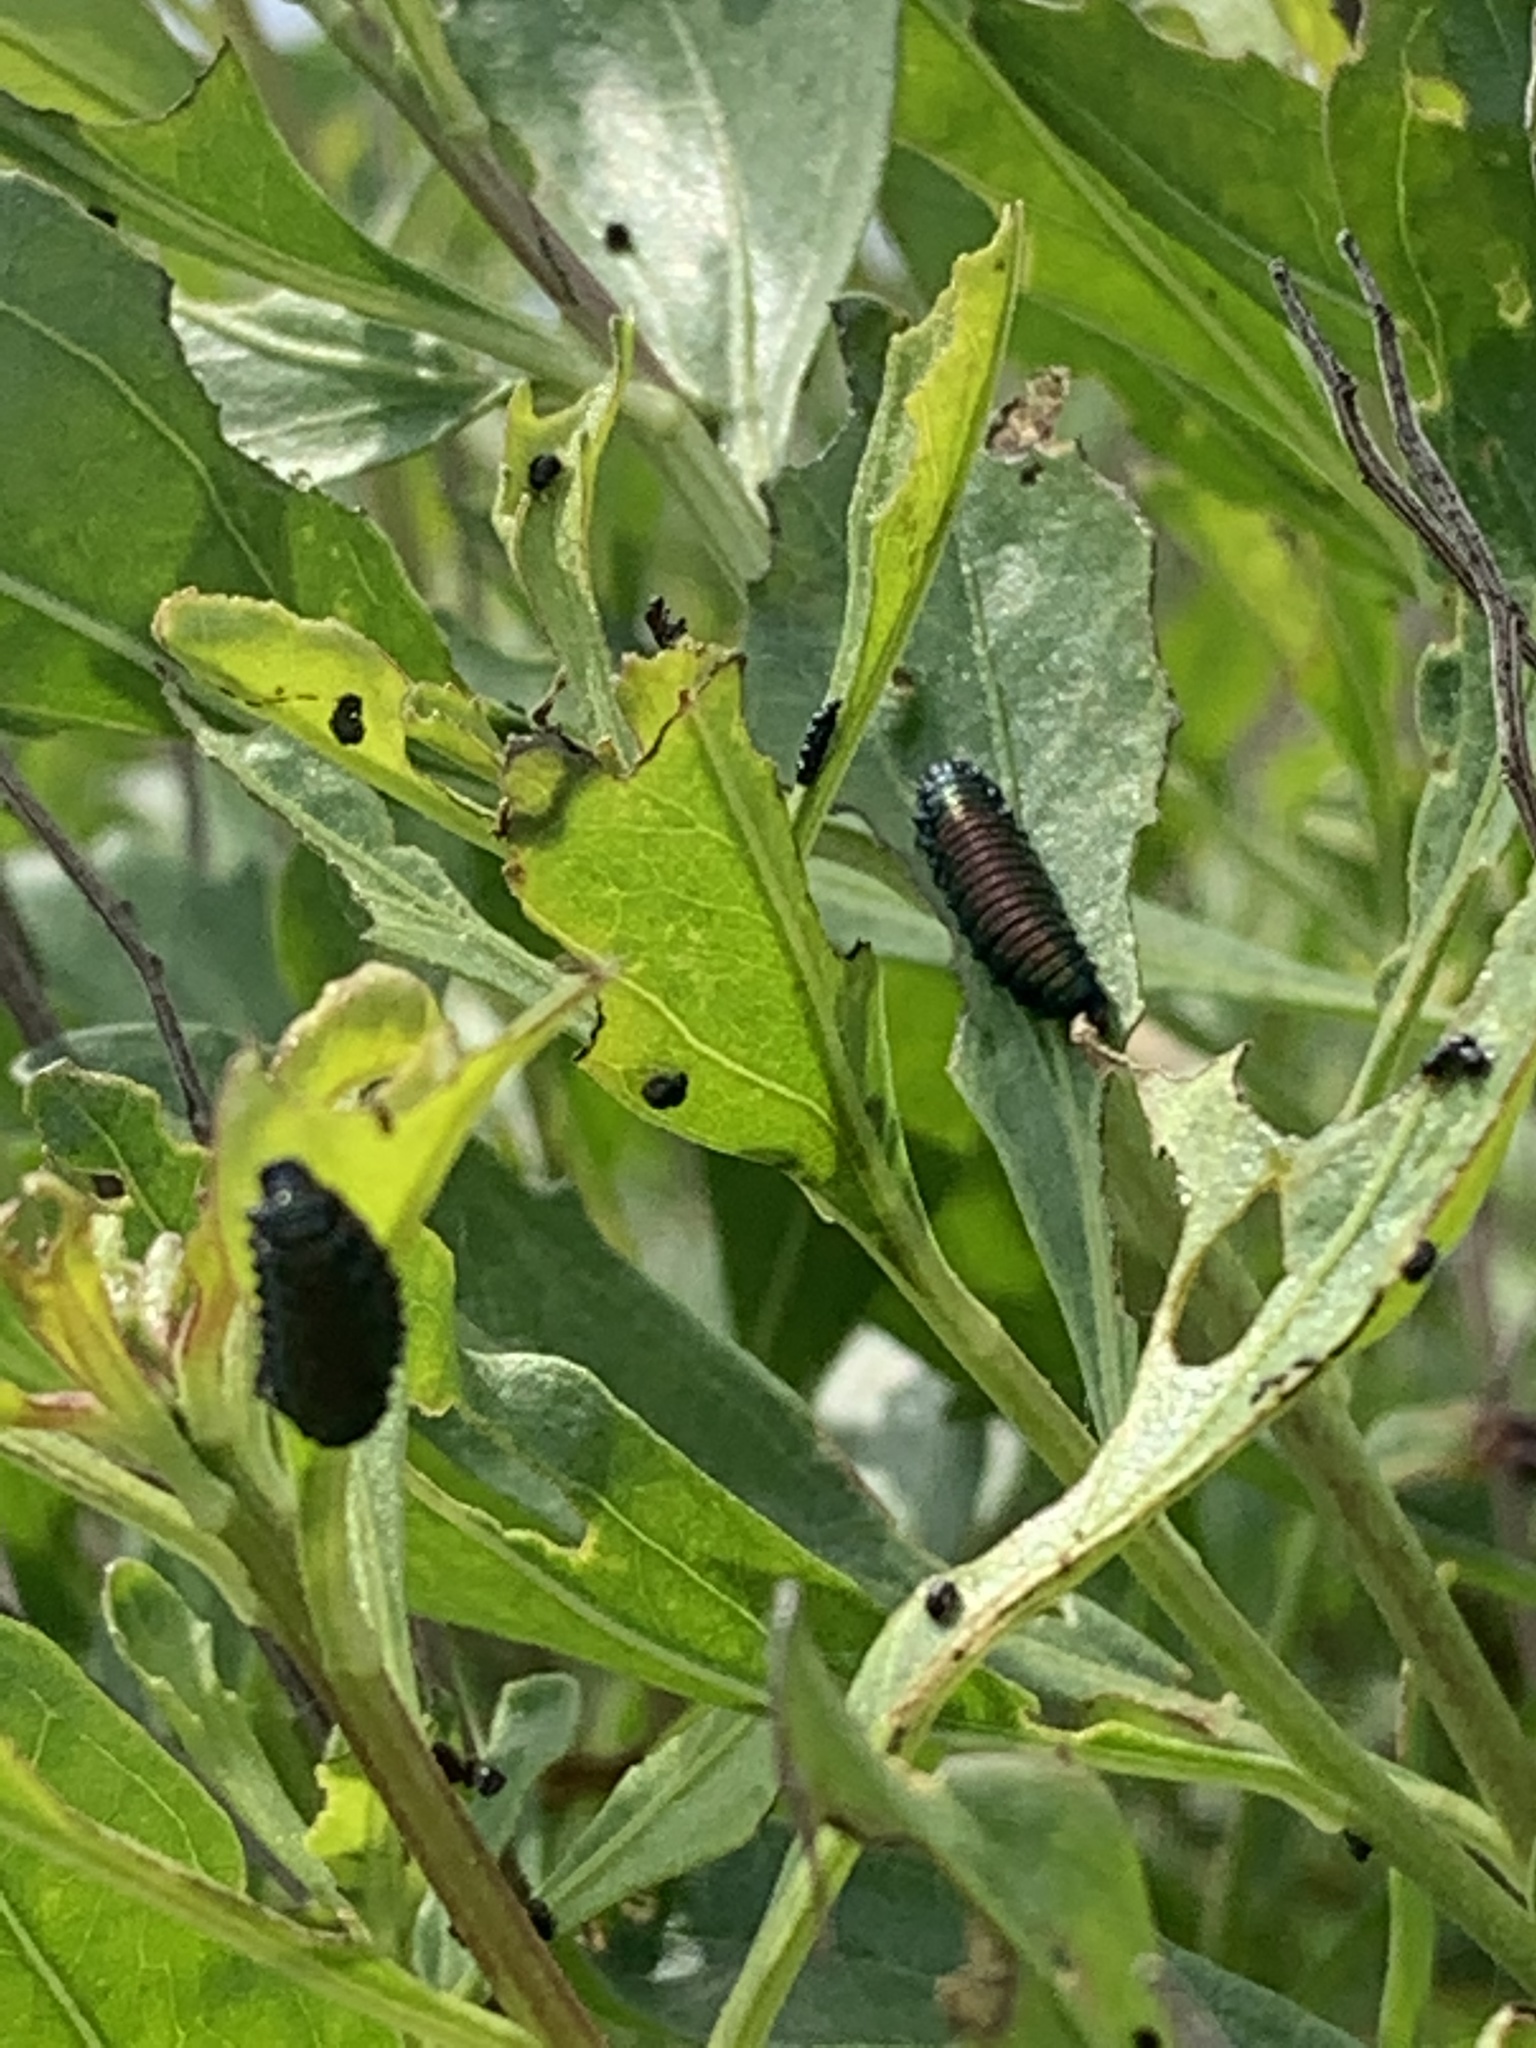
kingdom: Animalia
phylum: Arthropoda
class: Insecta
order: Coleoptera
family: Chrysomelidae
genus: Trirhabda
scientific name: Trirhabda bacharidis
